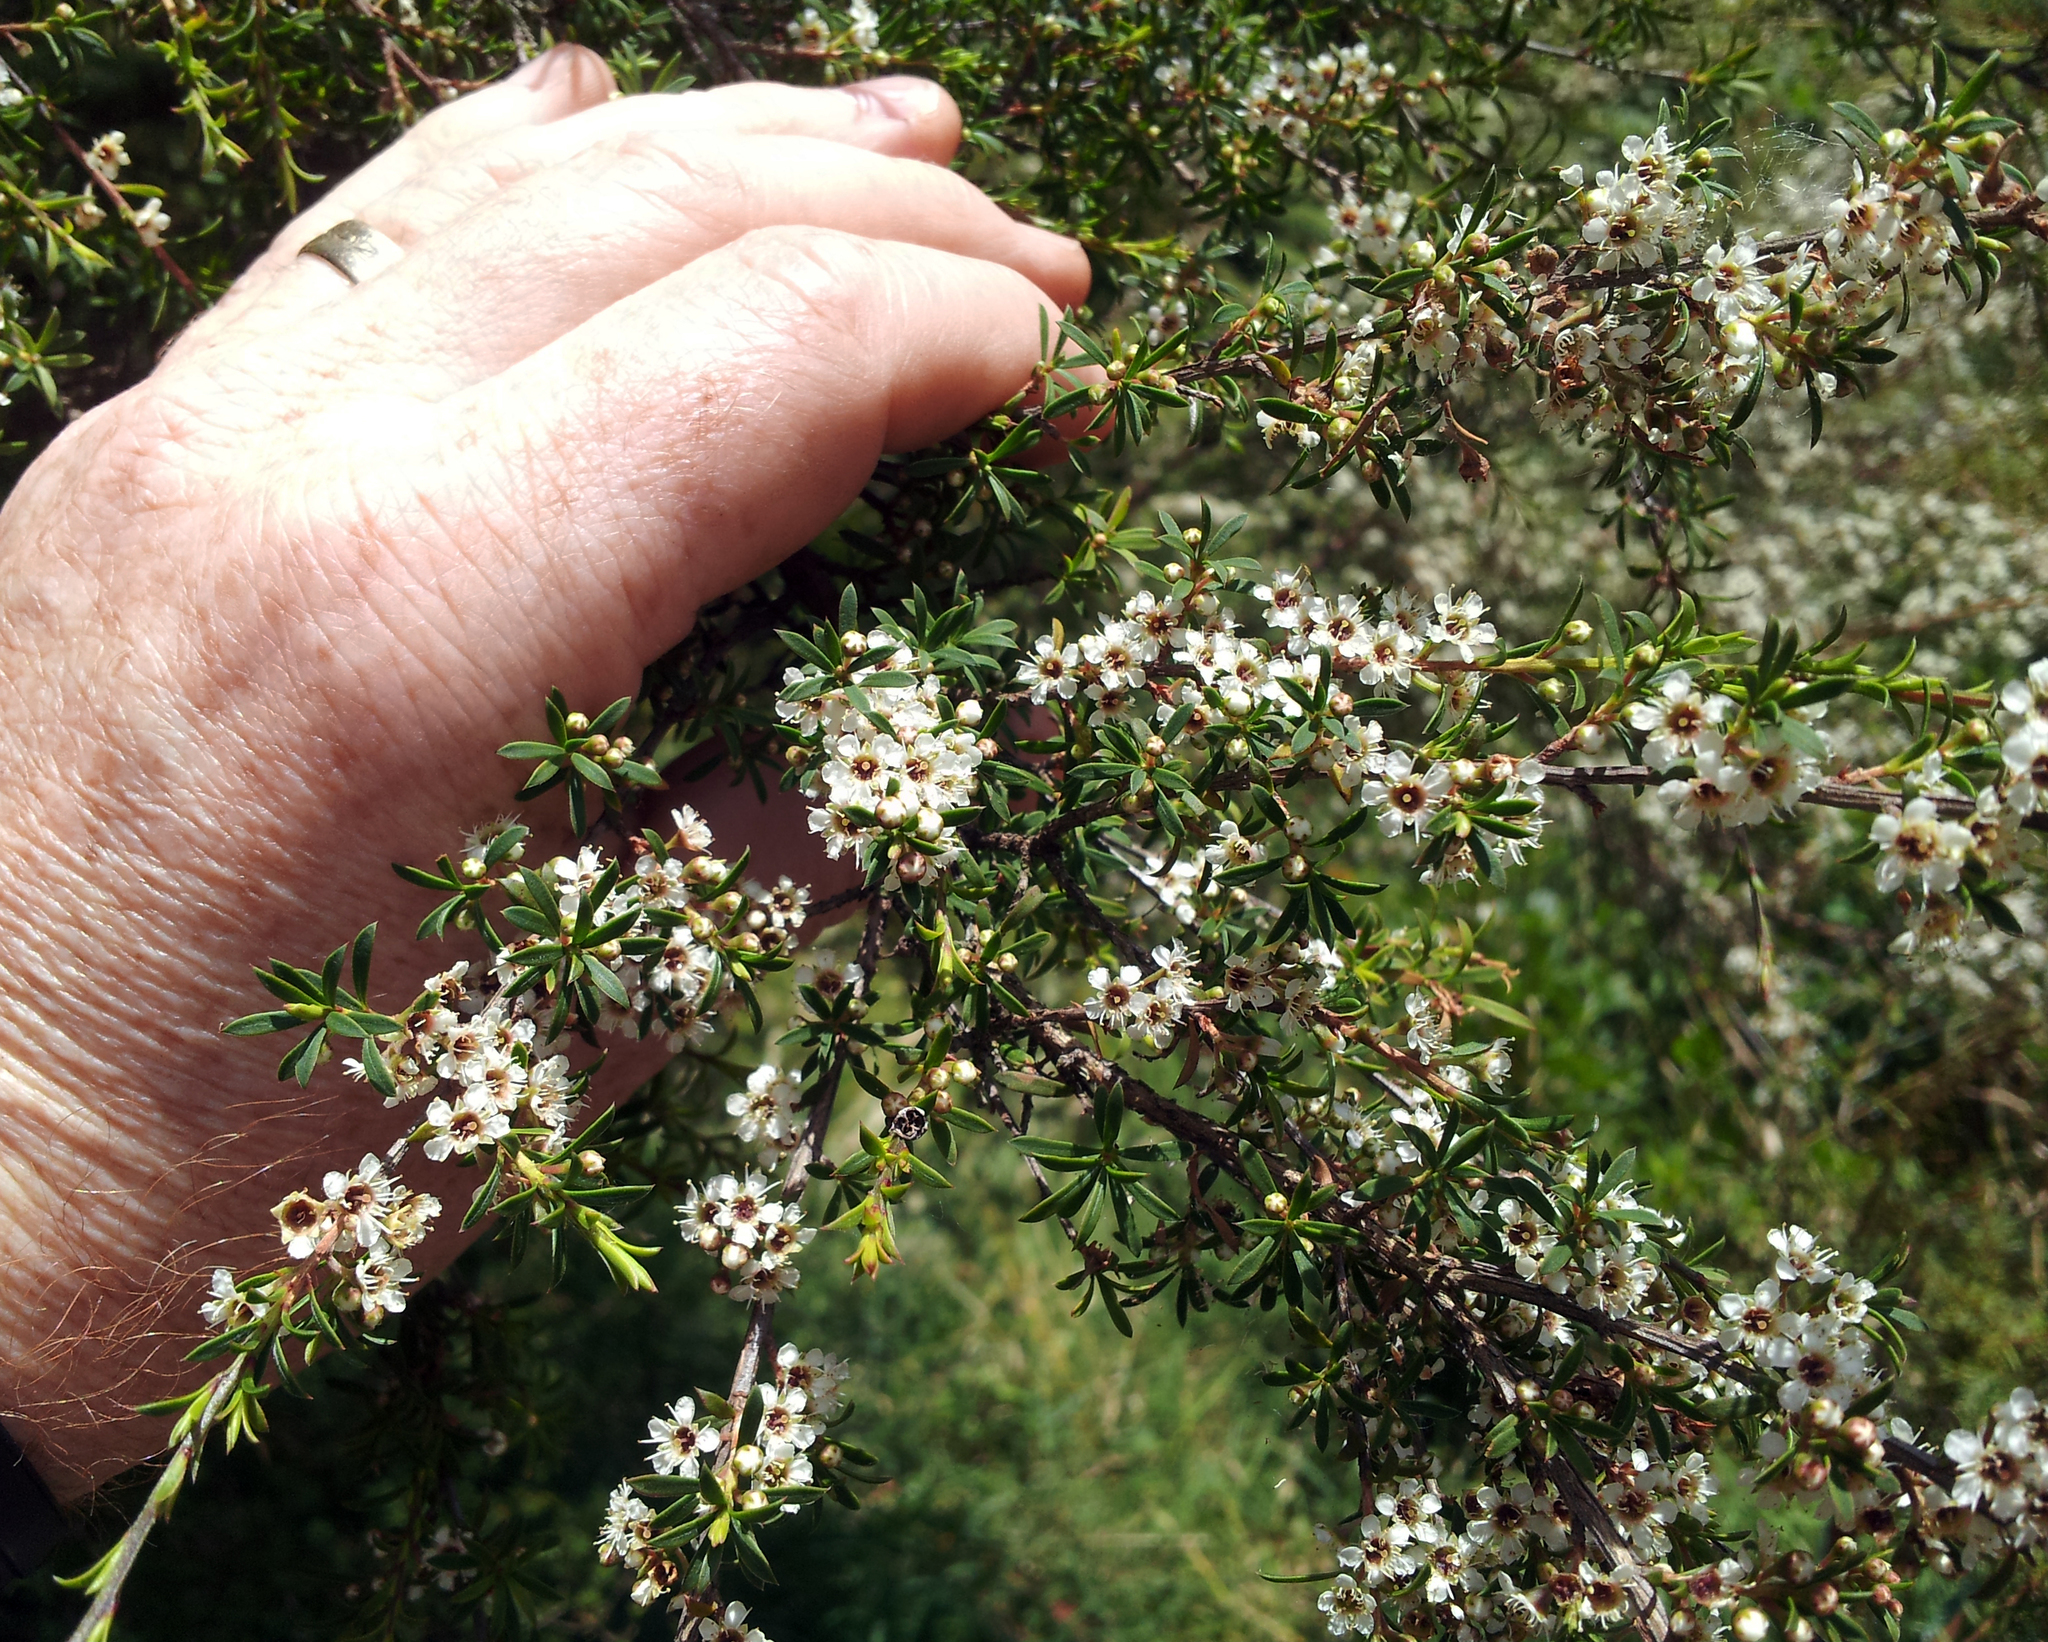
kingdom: Plantae
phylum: Tracheophyta
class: Magnoliopsida
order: Myrtales
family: Myrtaceae
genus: Kunzea
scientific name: Kunzea robusta
